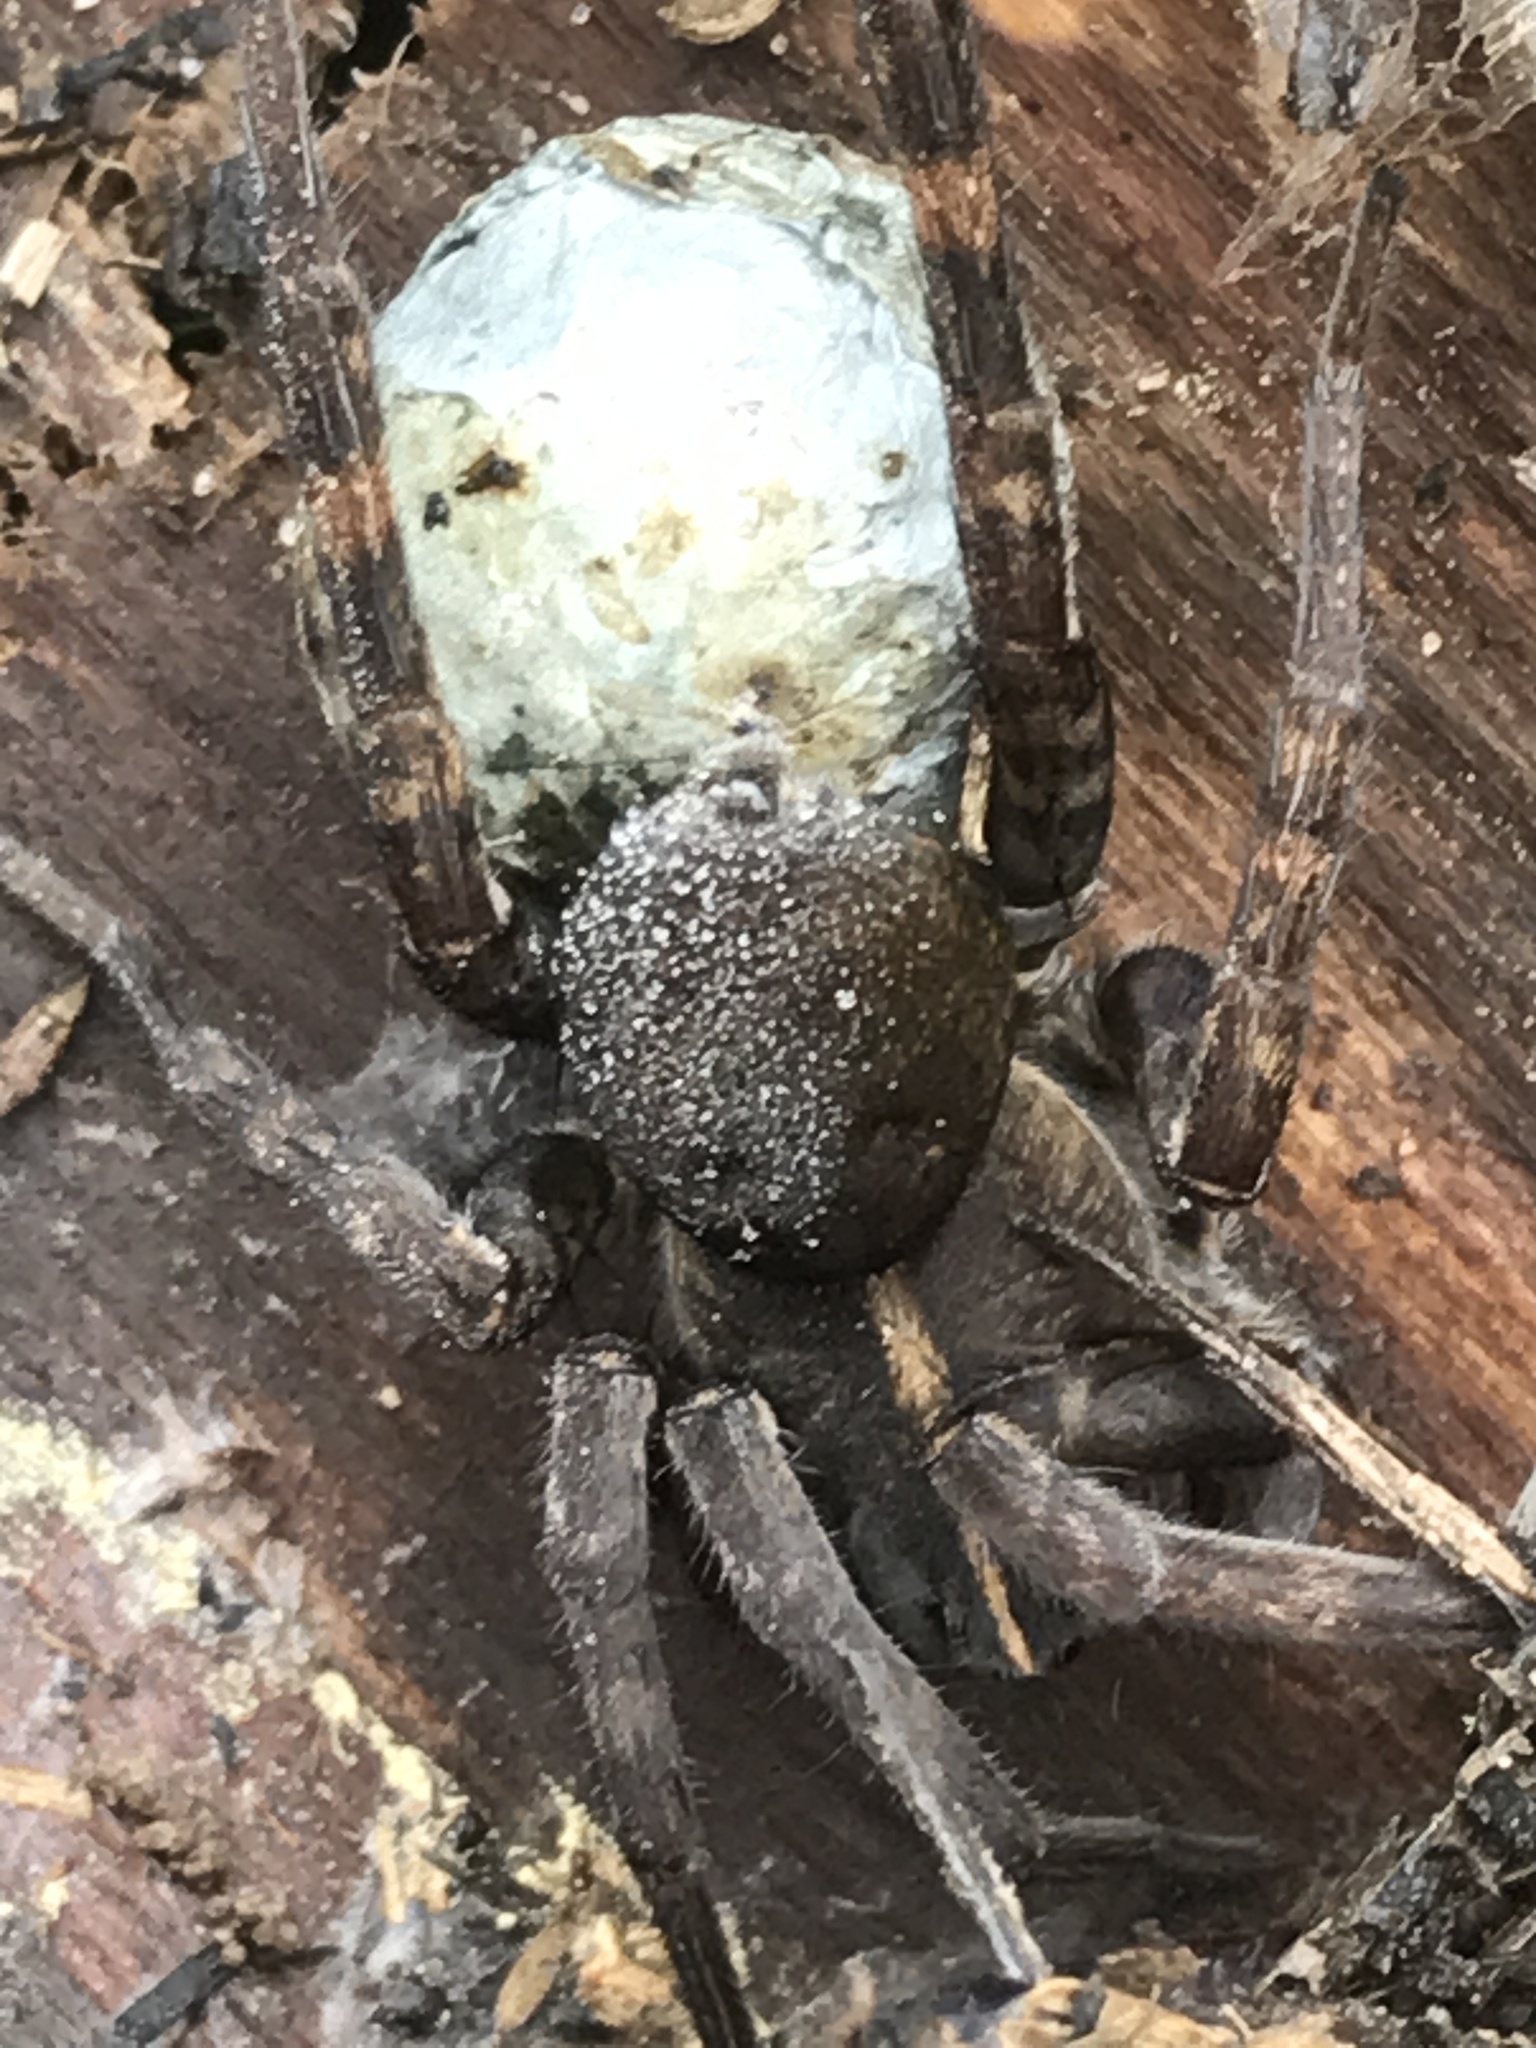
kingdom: Animalia
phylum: Arthropoda
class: Arachnida
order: Araneae
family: Lycosidae
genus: Tigrosa
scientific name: Tigrosa georgicola
